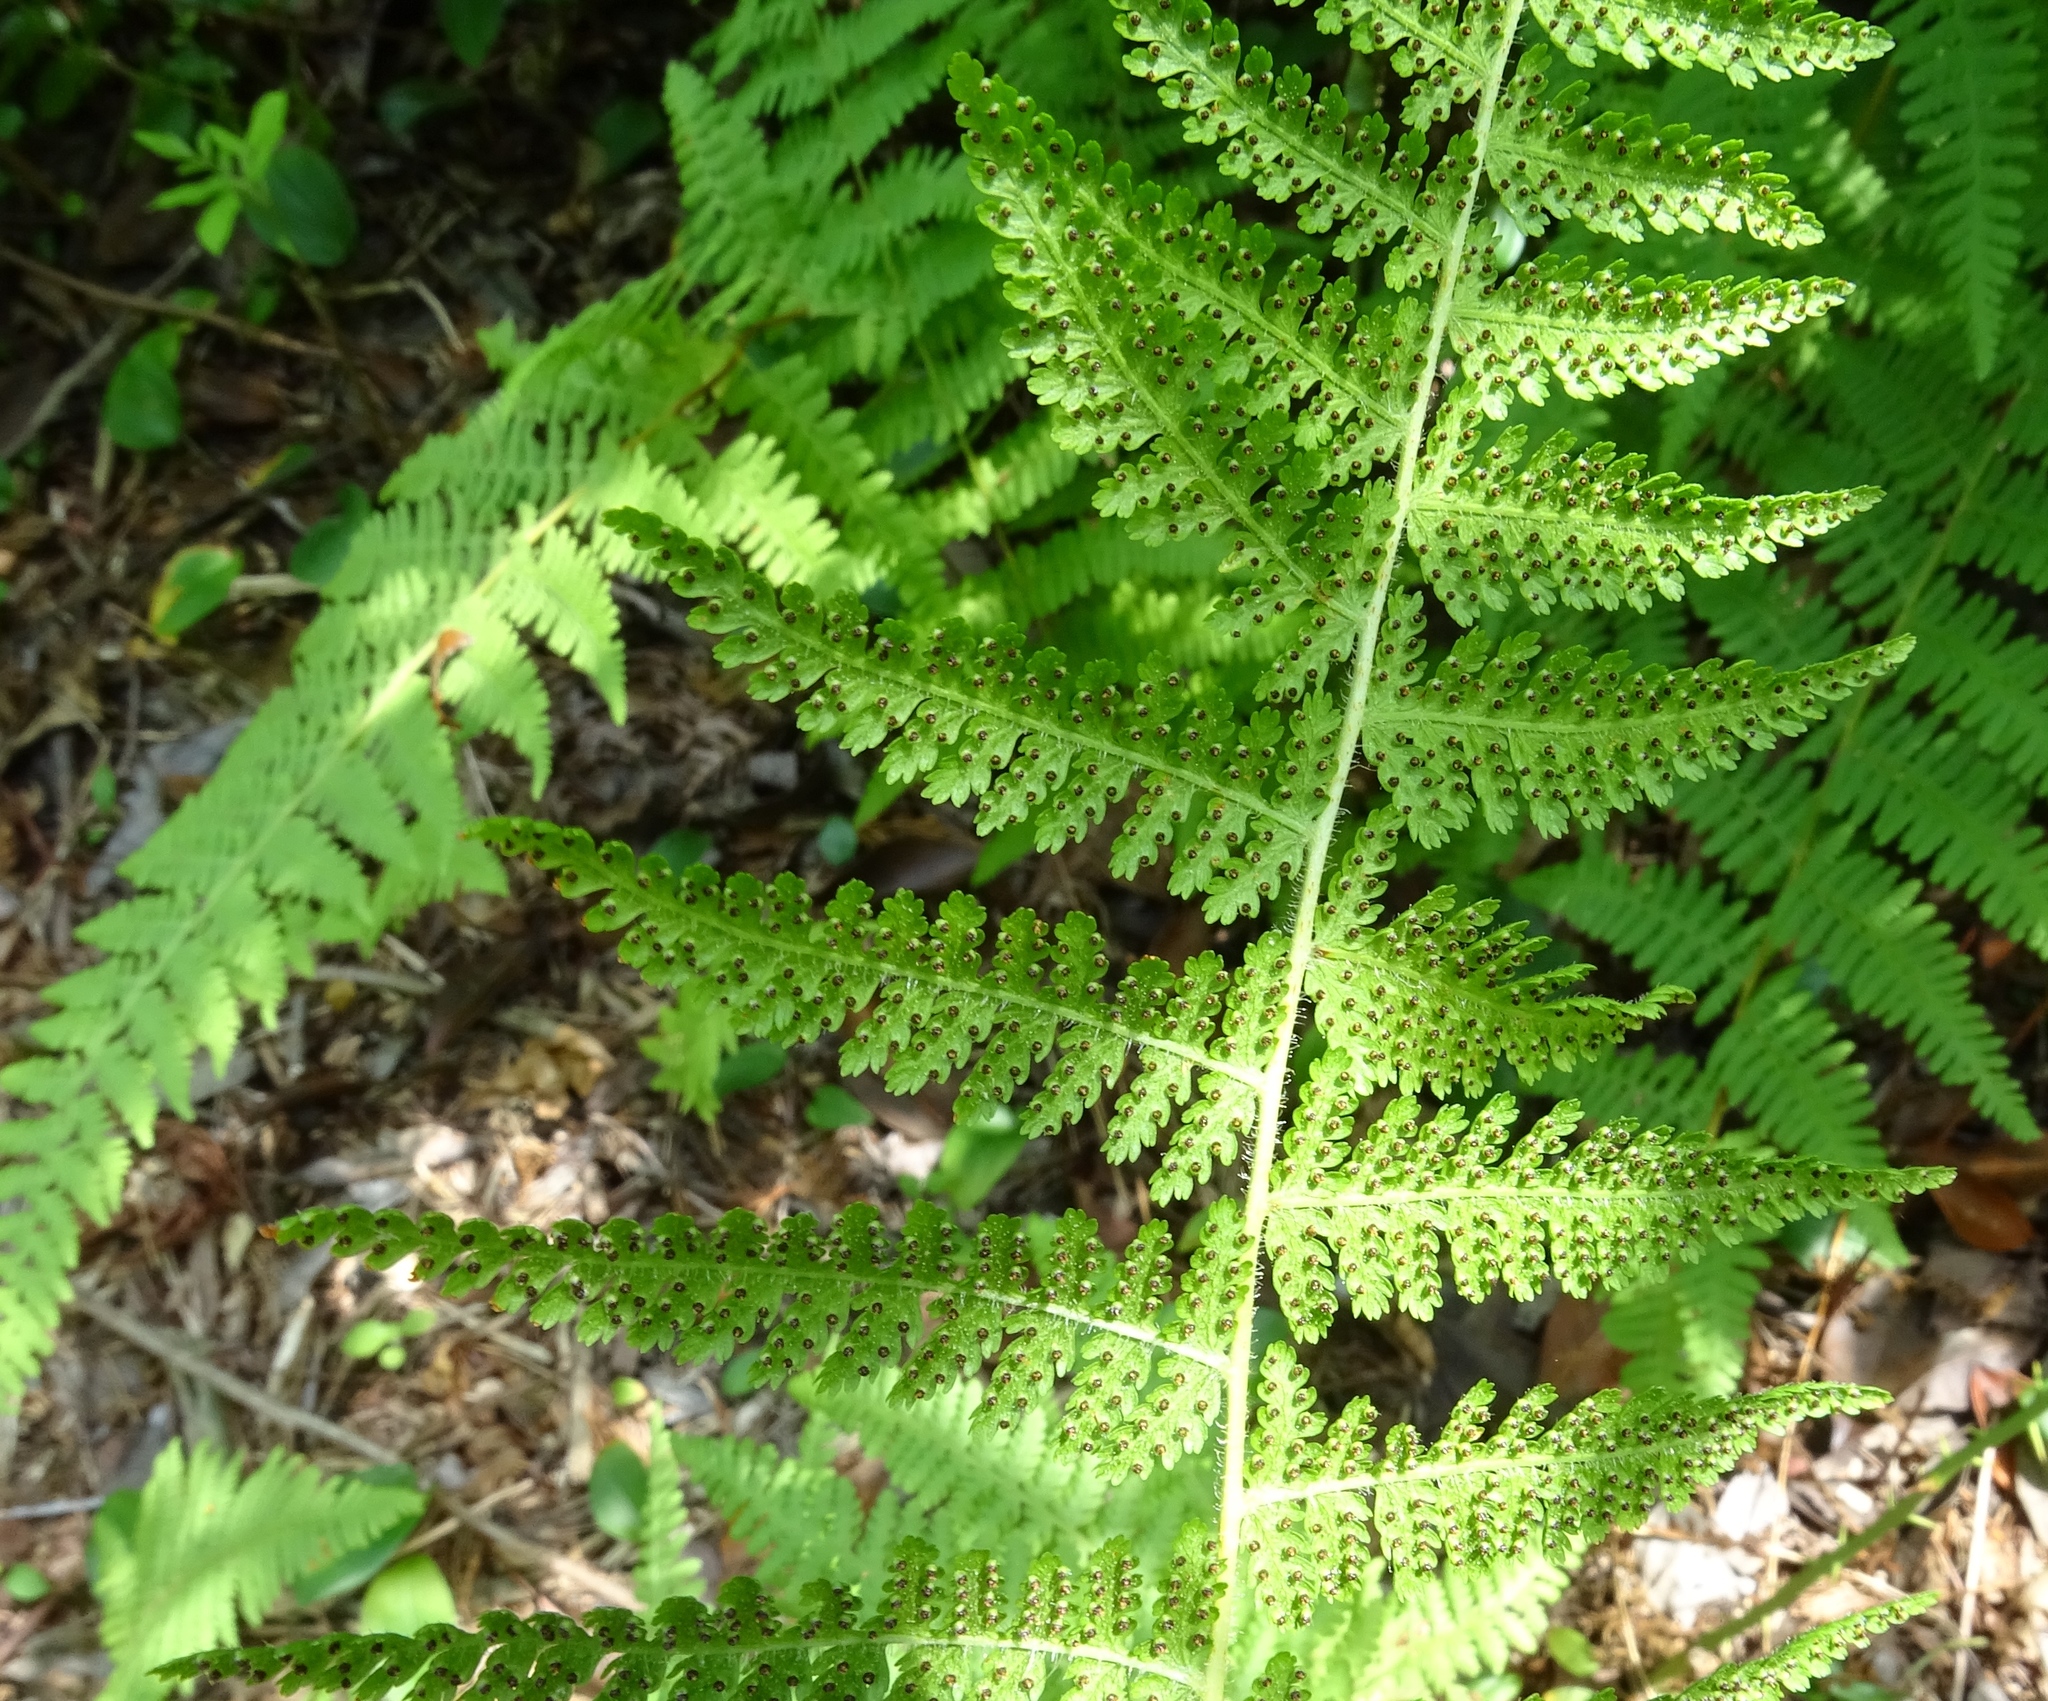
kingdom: Plantae
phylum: Tracheophyta
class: Polypodiopsida
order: Polypodiales
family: Dennstaedtiaceae
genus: Sitobolium
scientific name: Sitobolium punctilobum
